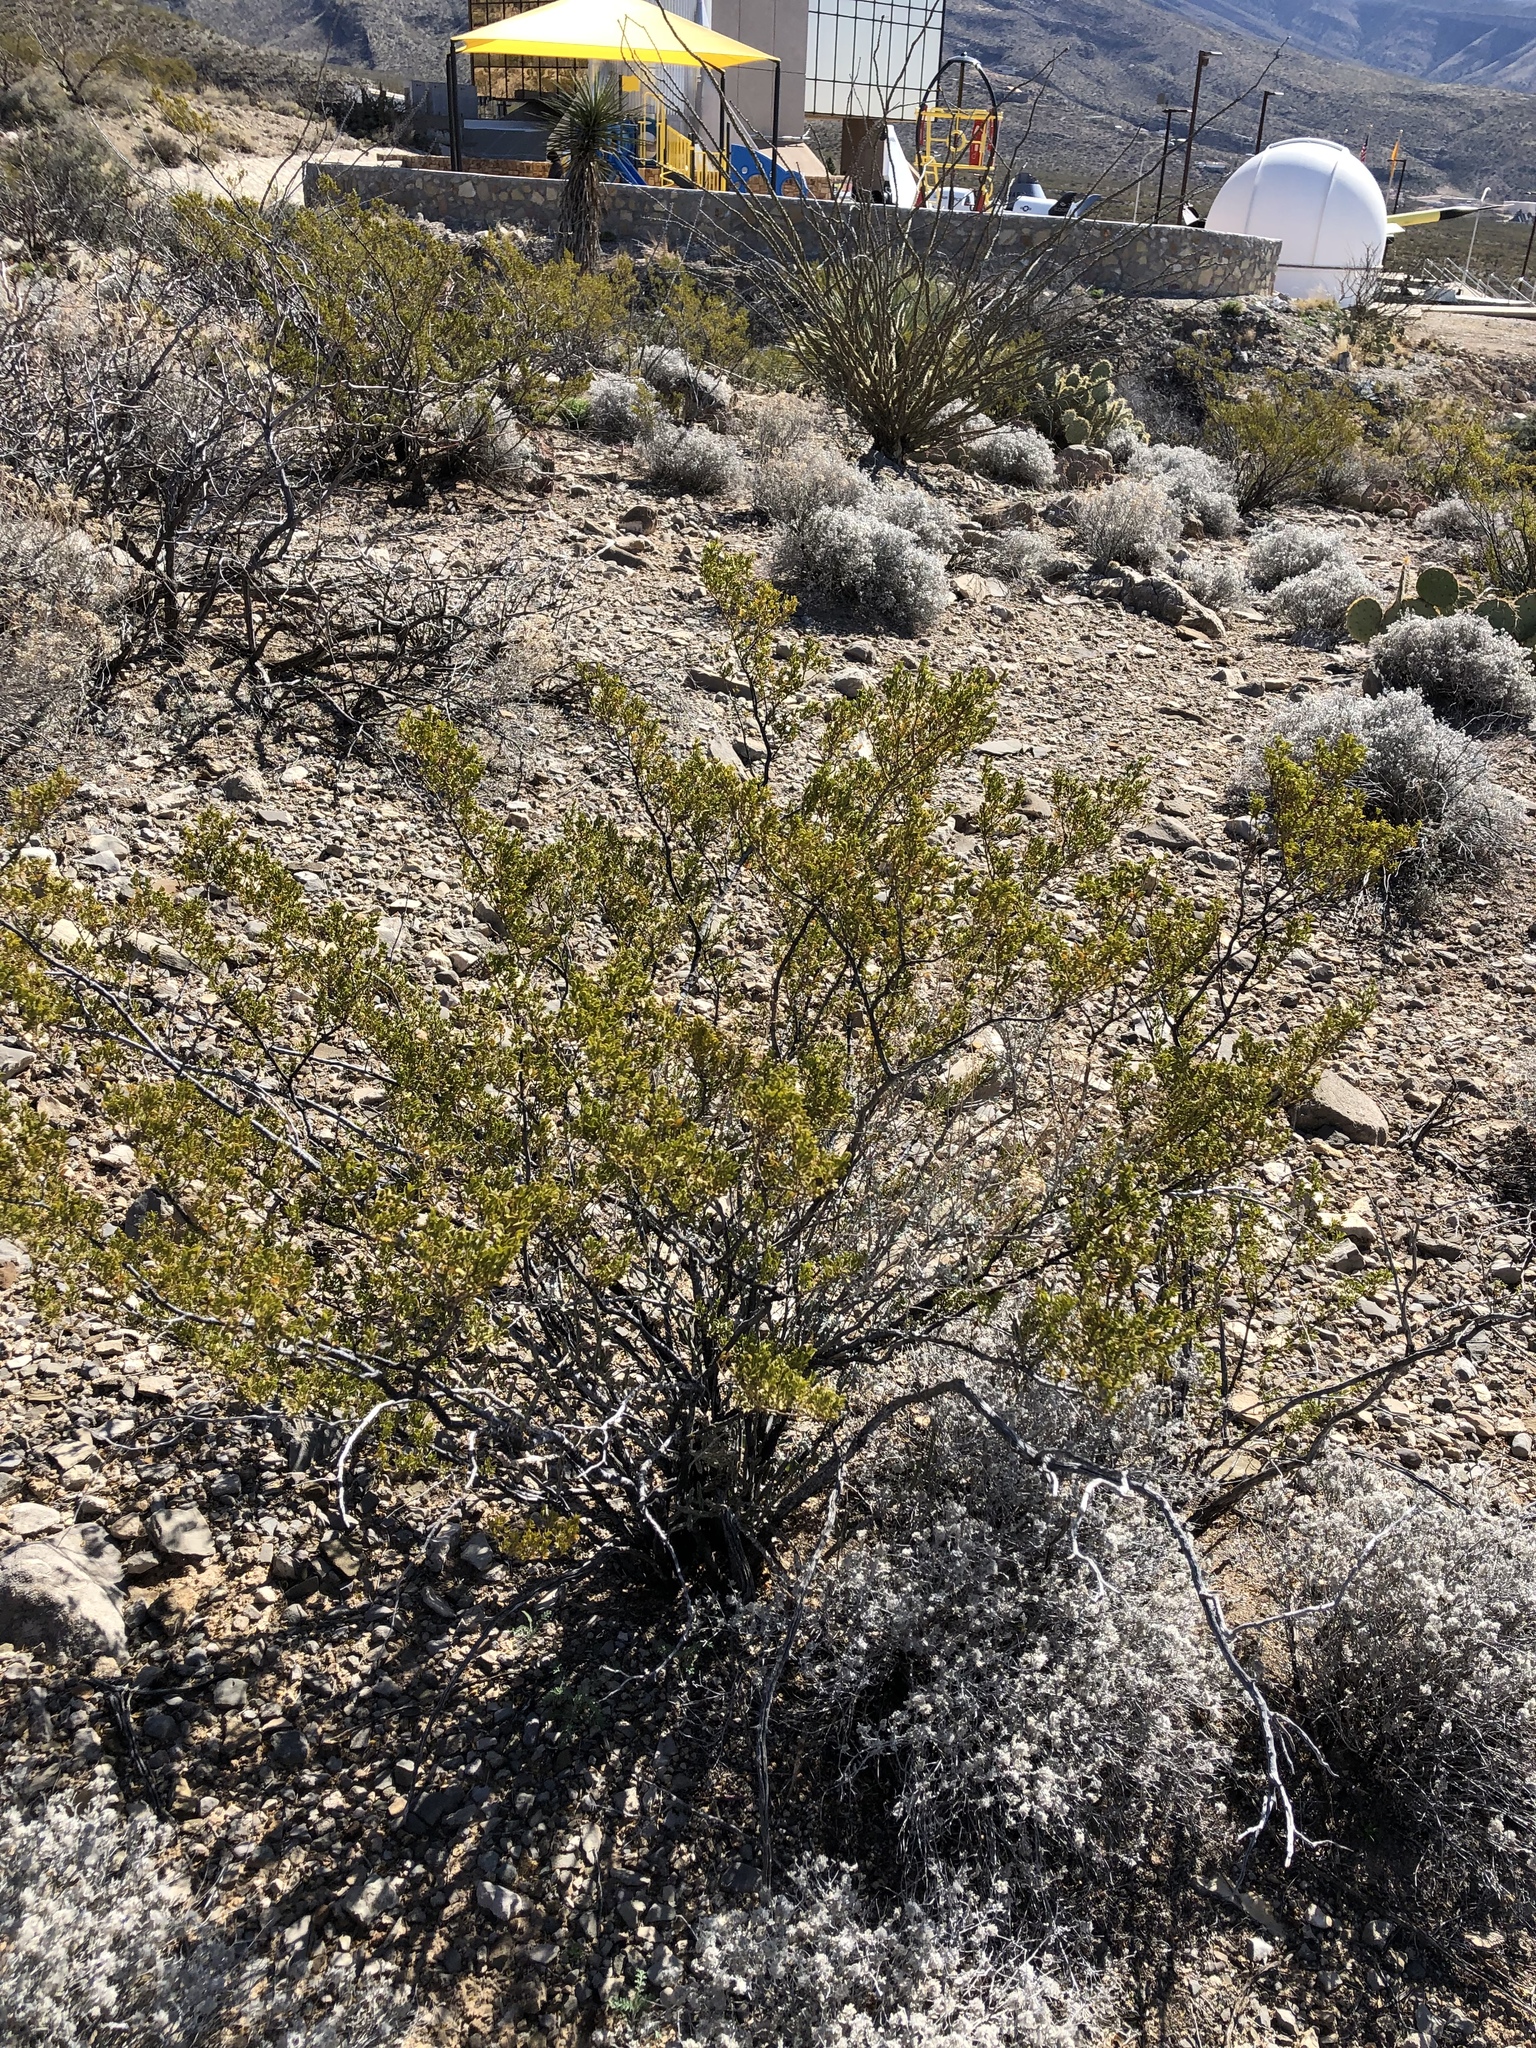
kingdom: Plantae
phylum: Tracheophyta
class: Magnoliopsida
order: Zygophyllales
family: Zygophyllaceae
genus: Larrea
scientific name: Larrea tridentata
